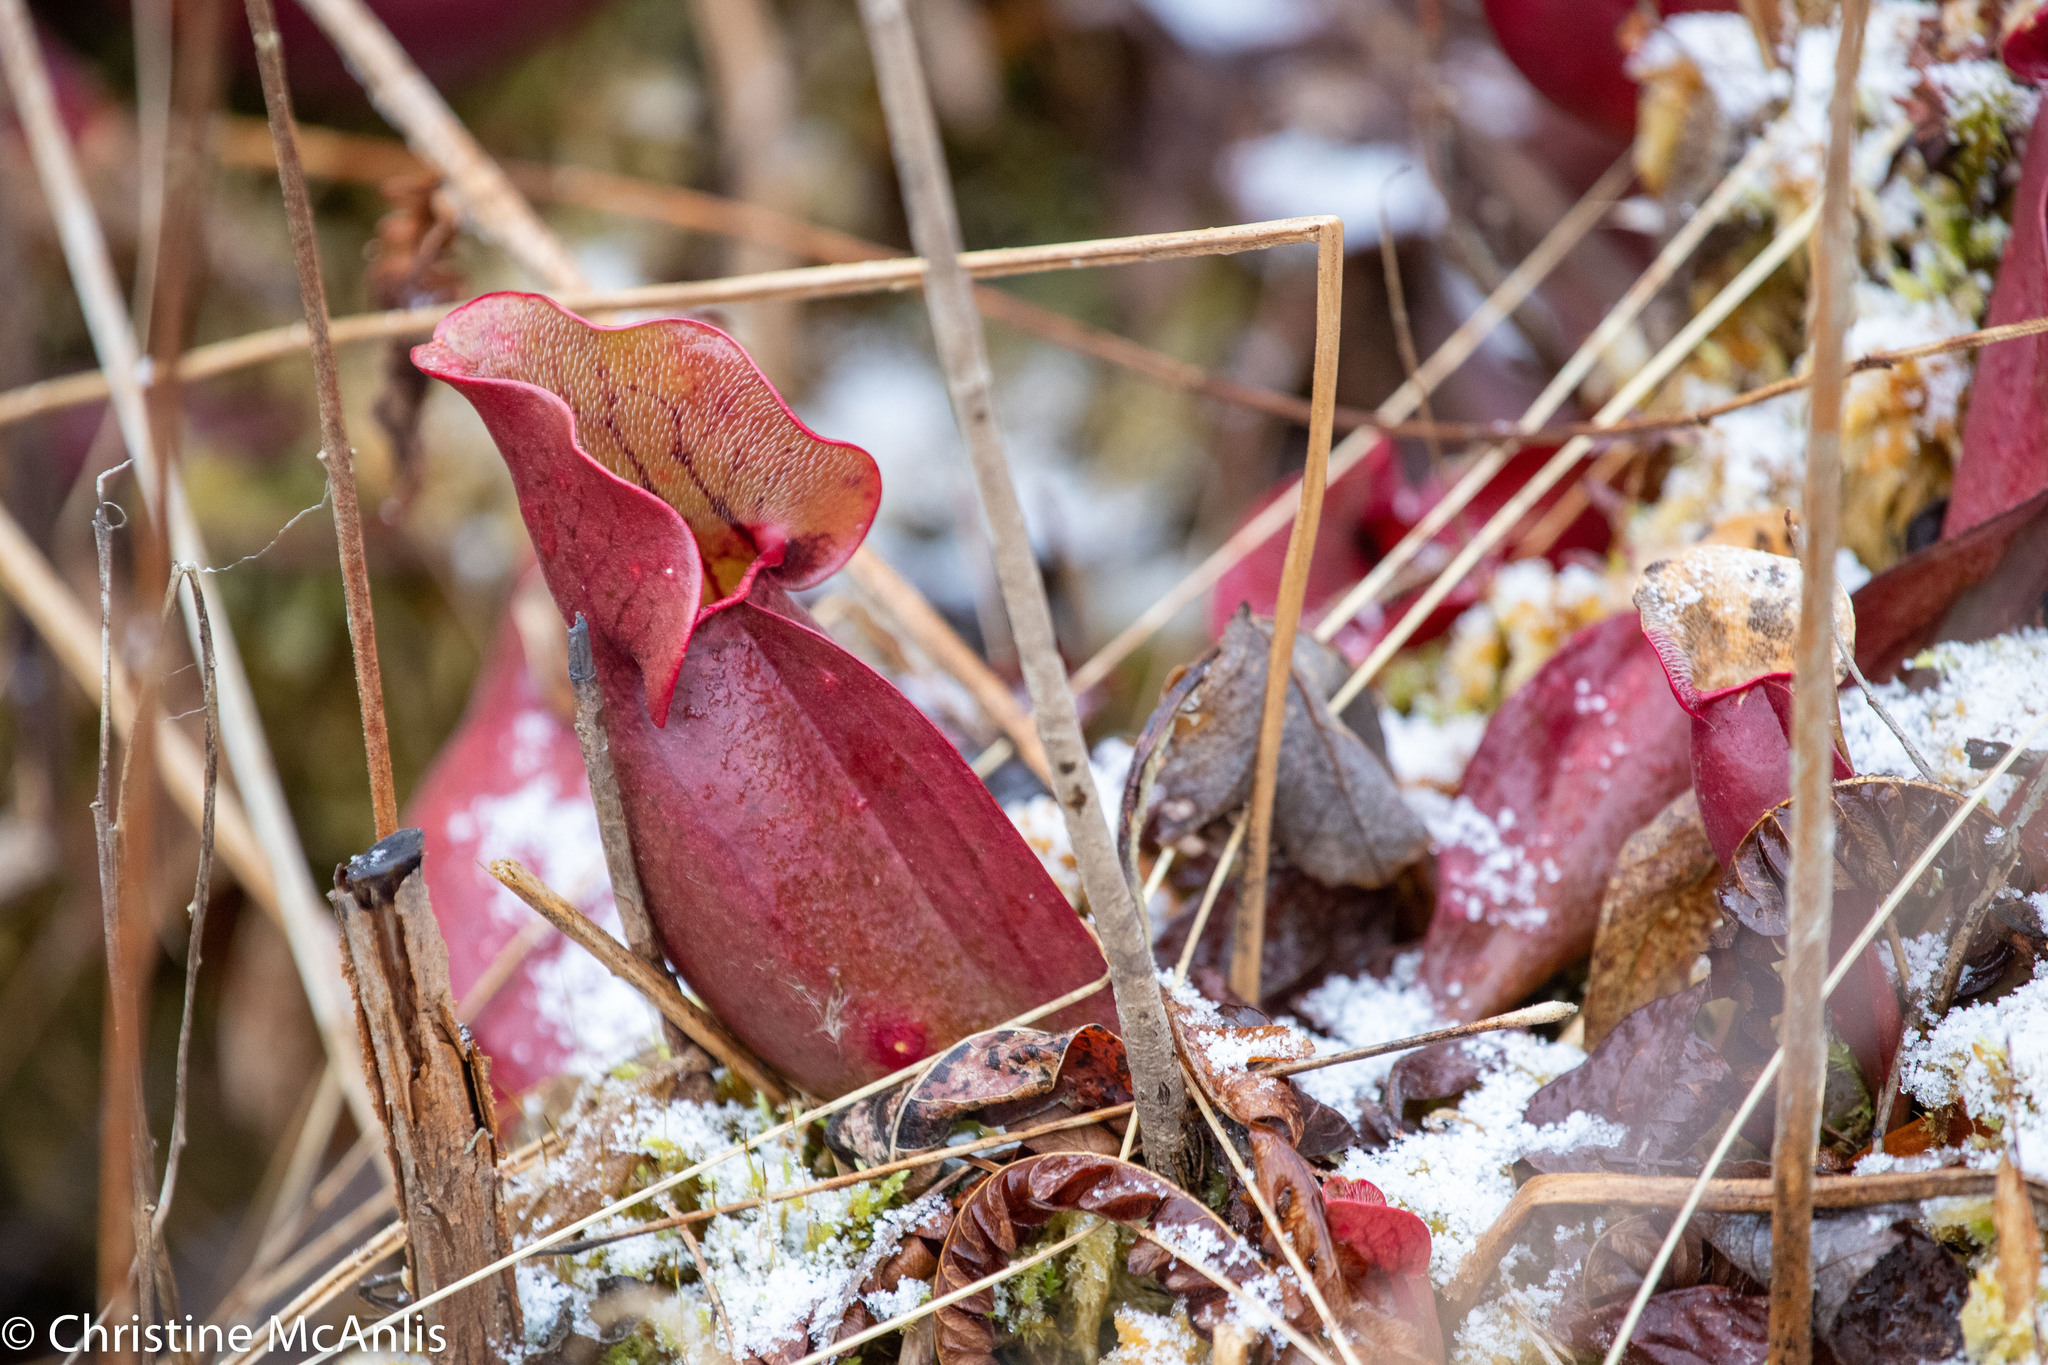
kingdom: Plantae
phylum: Tracheophyta
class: Magnoliopsida
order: Ericales
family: Sarraceniaceae
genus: Sarracenia
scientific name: Sarracenia purpurea
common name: Pitcherplant
